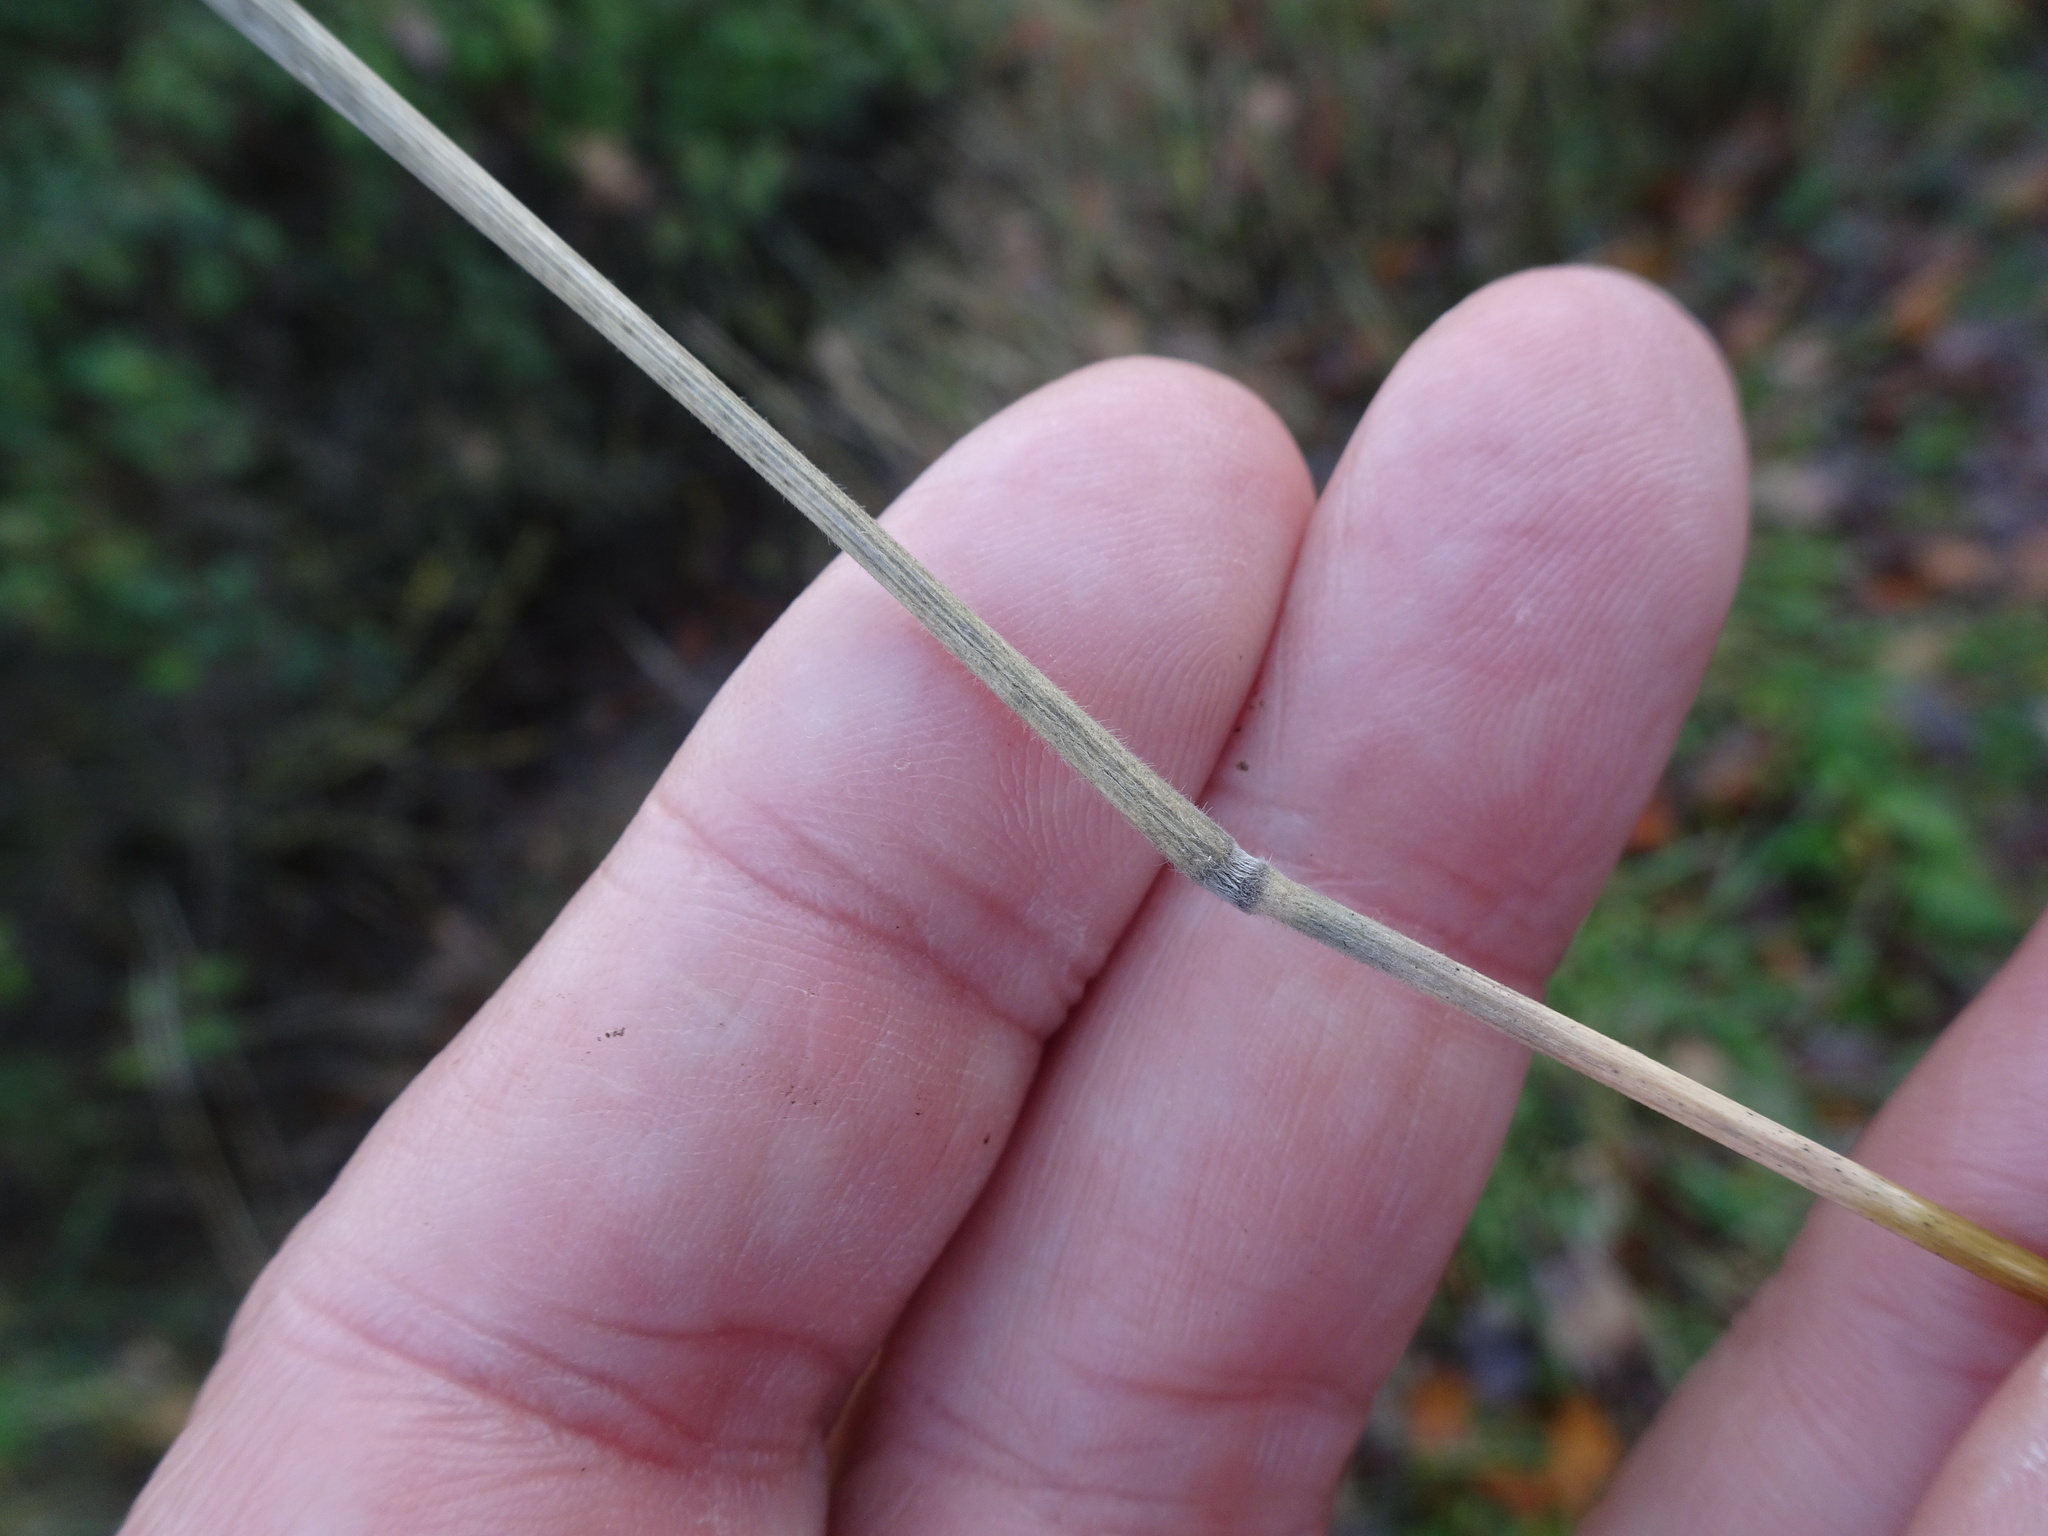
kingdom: Plantae
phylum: Tracheophyta
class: Liliopsida
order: Poales
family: Poaceae
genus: Holcus
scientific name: Holcus lanatus
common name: Yorkshire-fog
